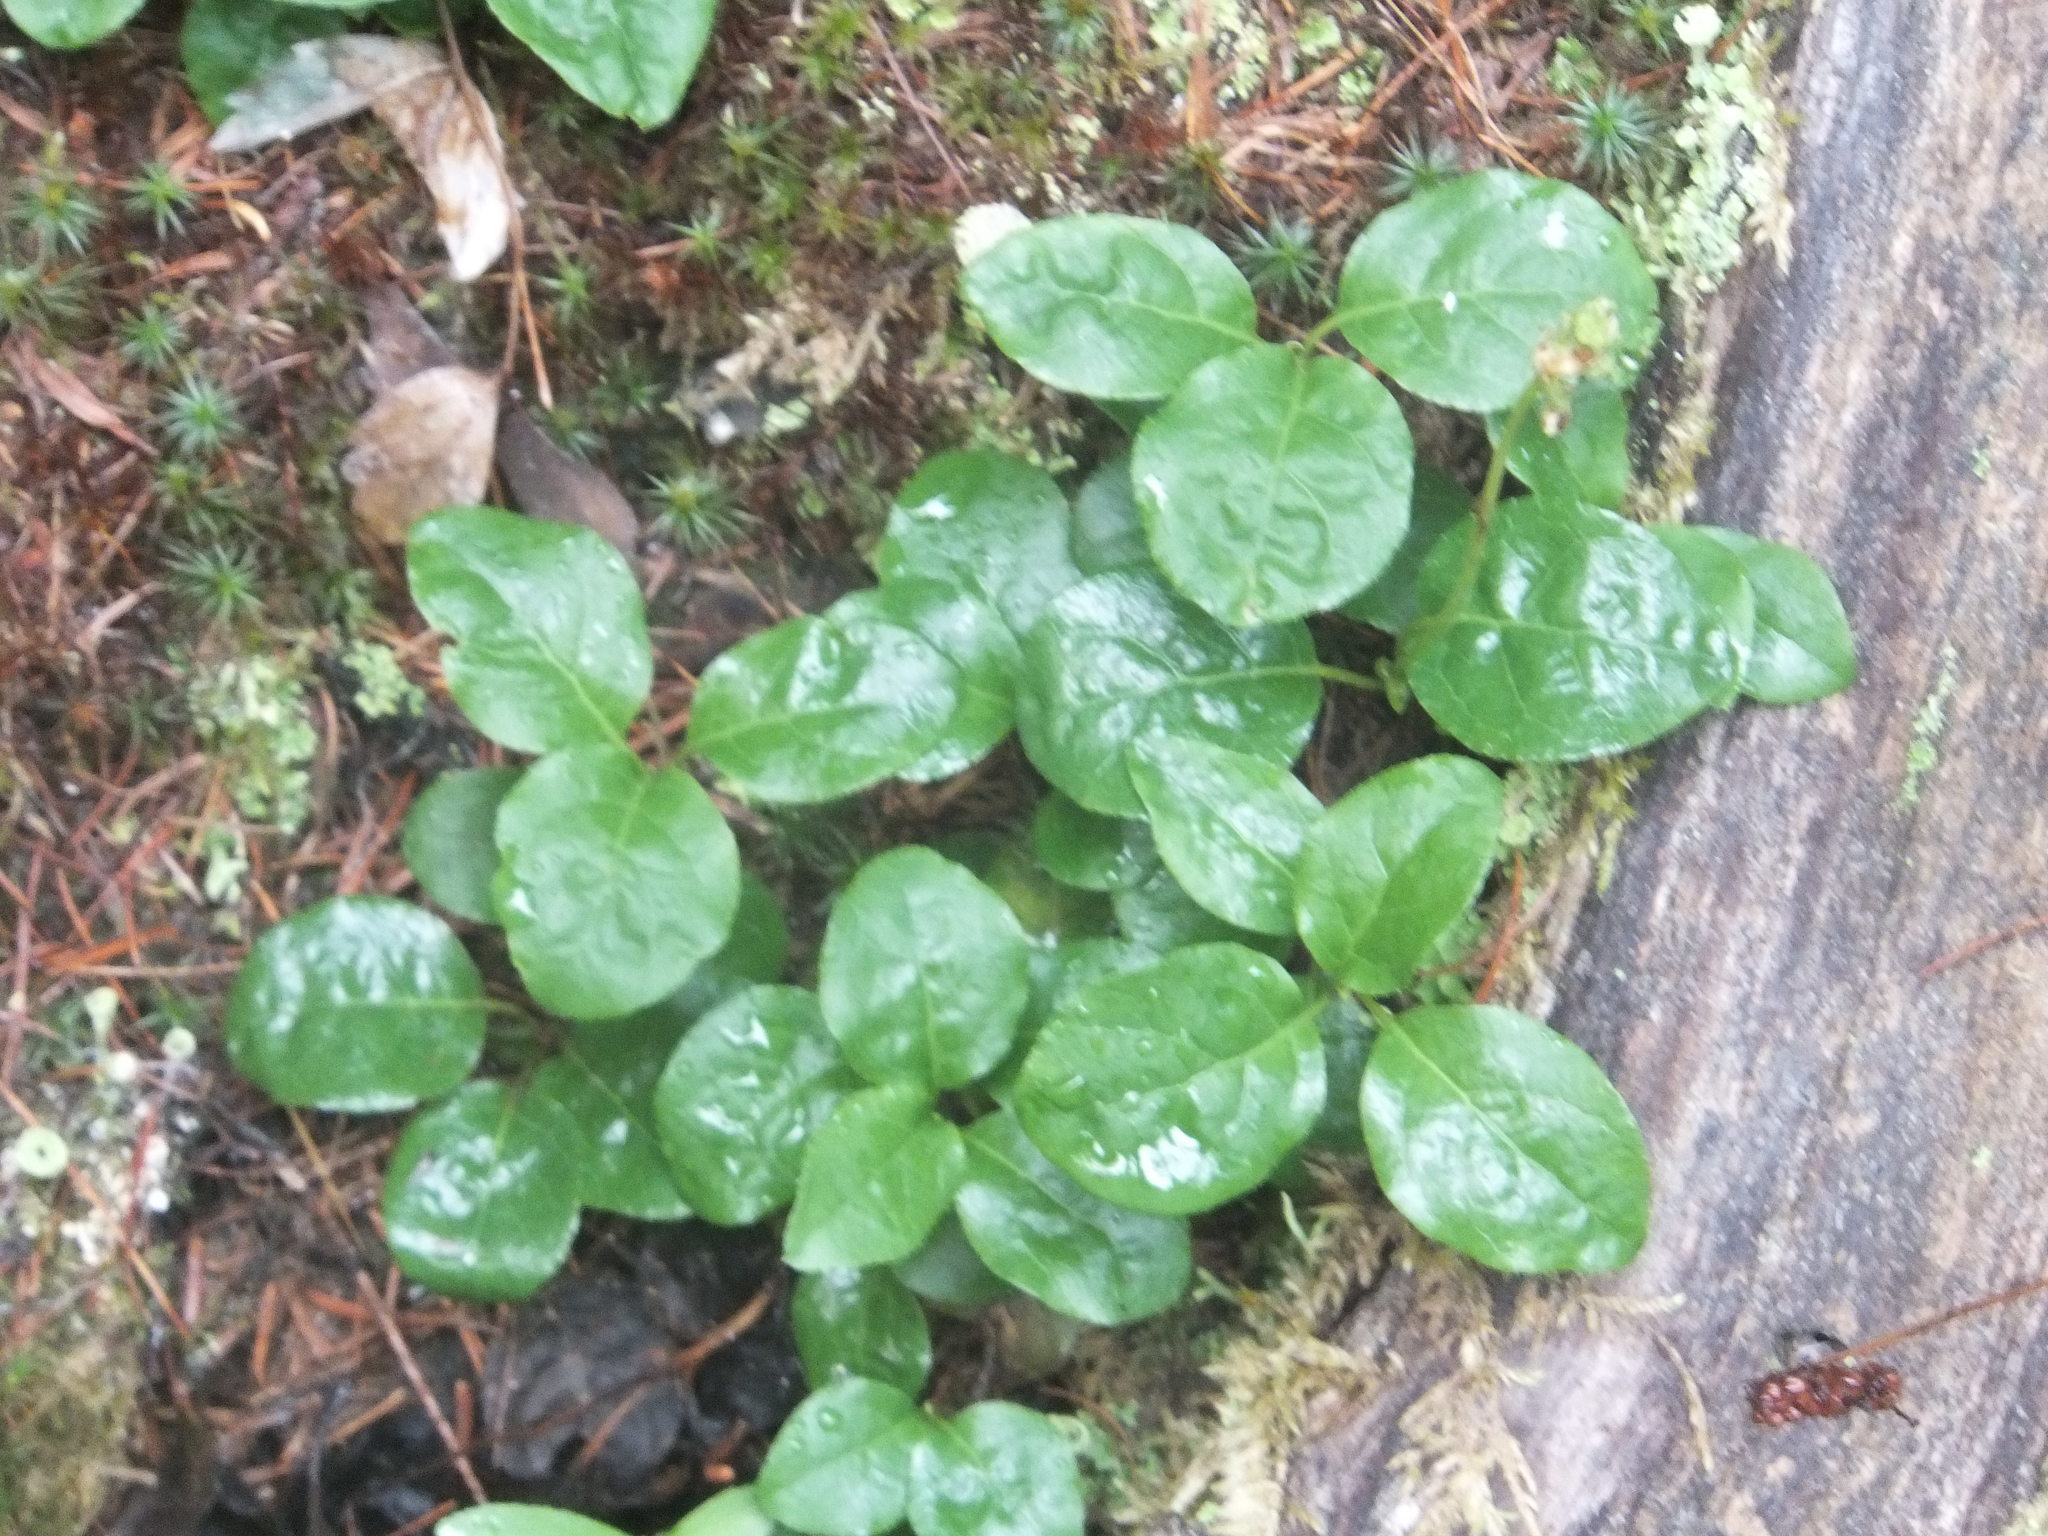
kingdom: Plantae
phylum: Tracheophyta
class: Magnoliopsida
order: Ericales
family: Ericaceae
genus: Orthilia
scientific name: Orthilia secunda
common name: One-sided orthilia
